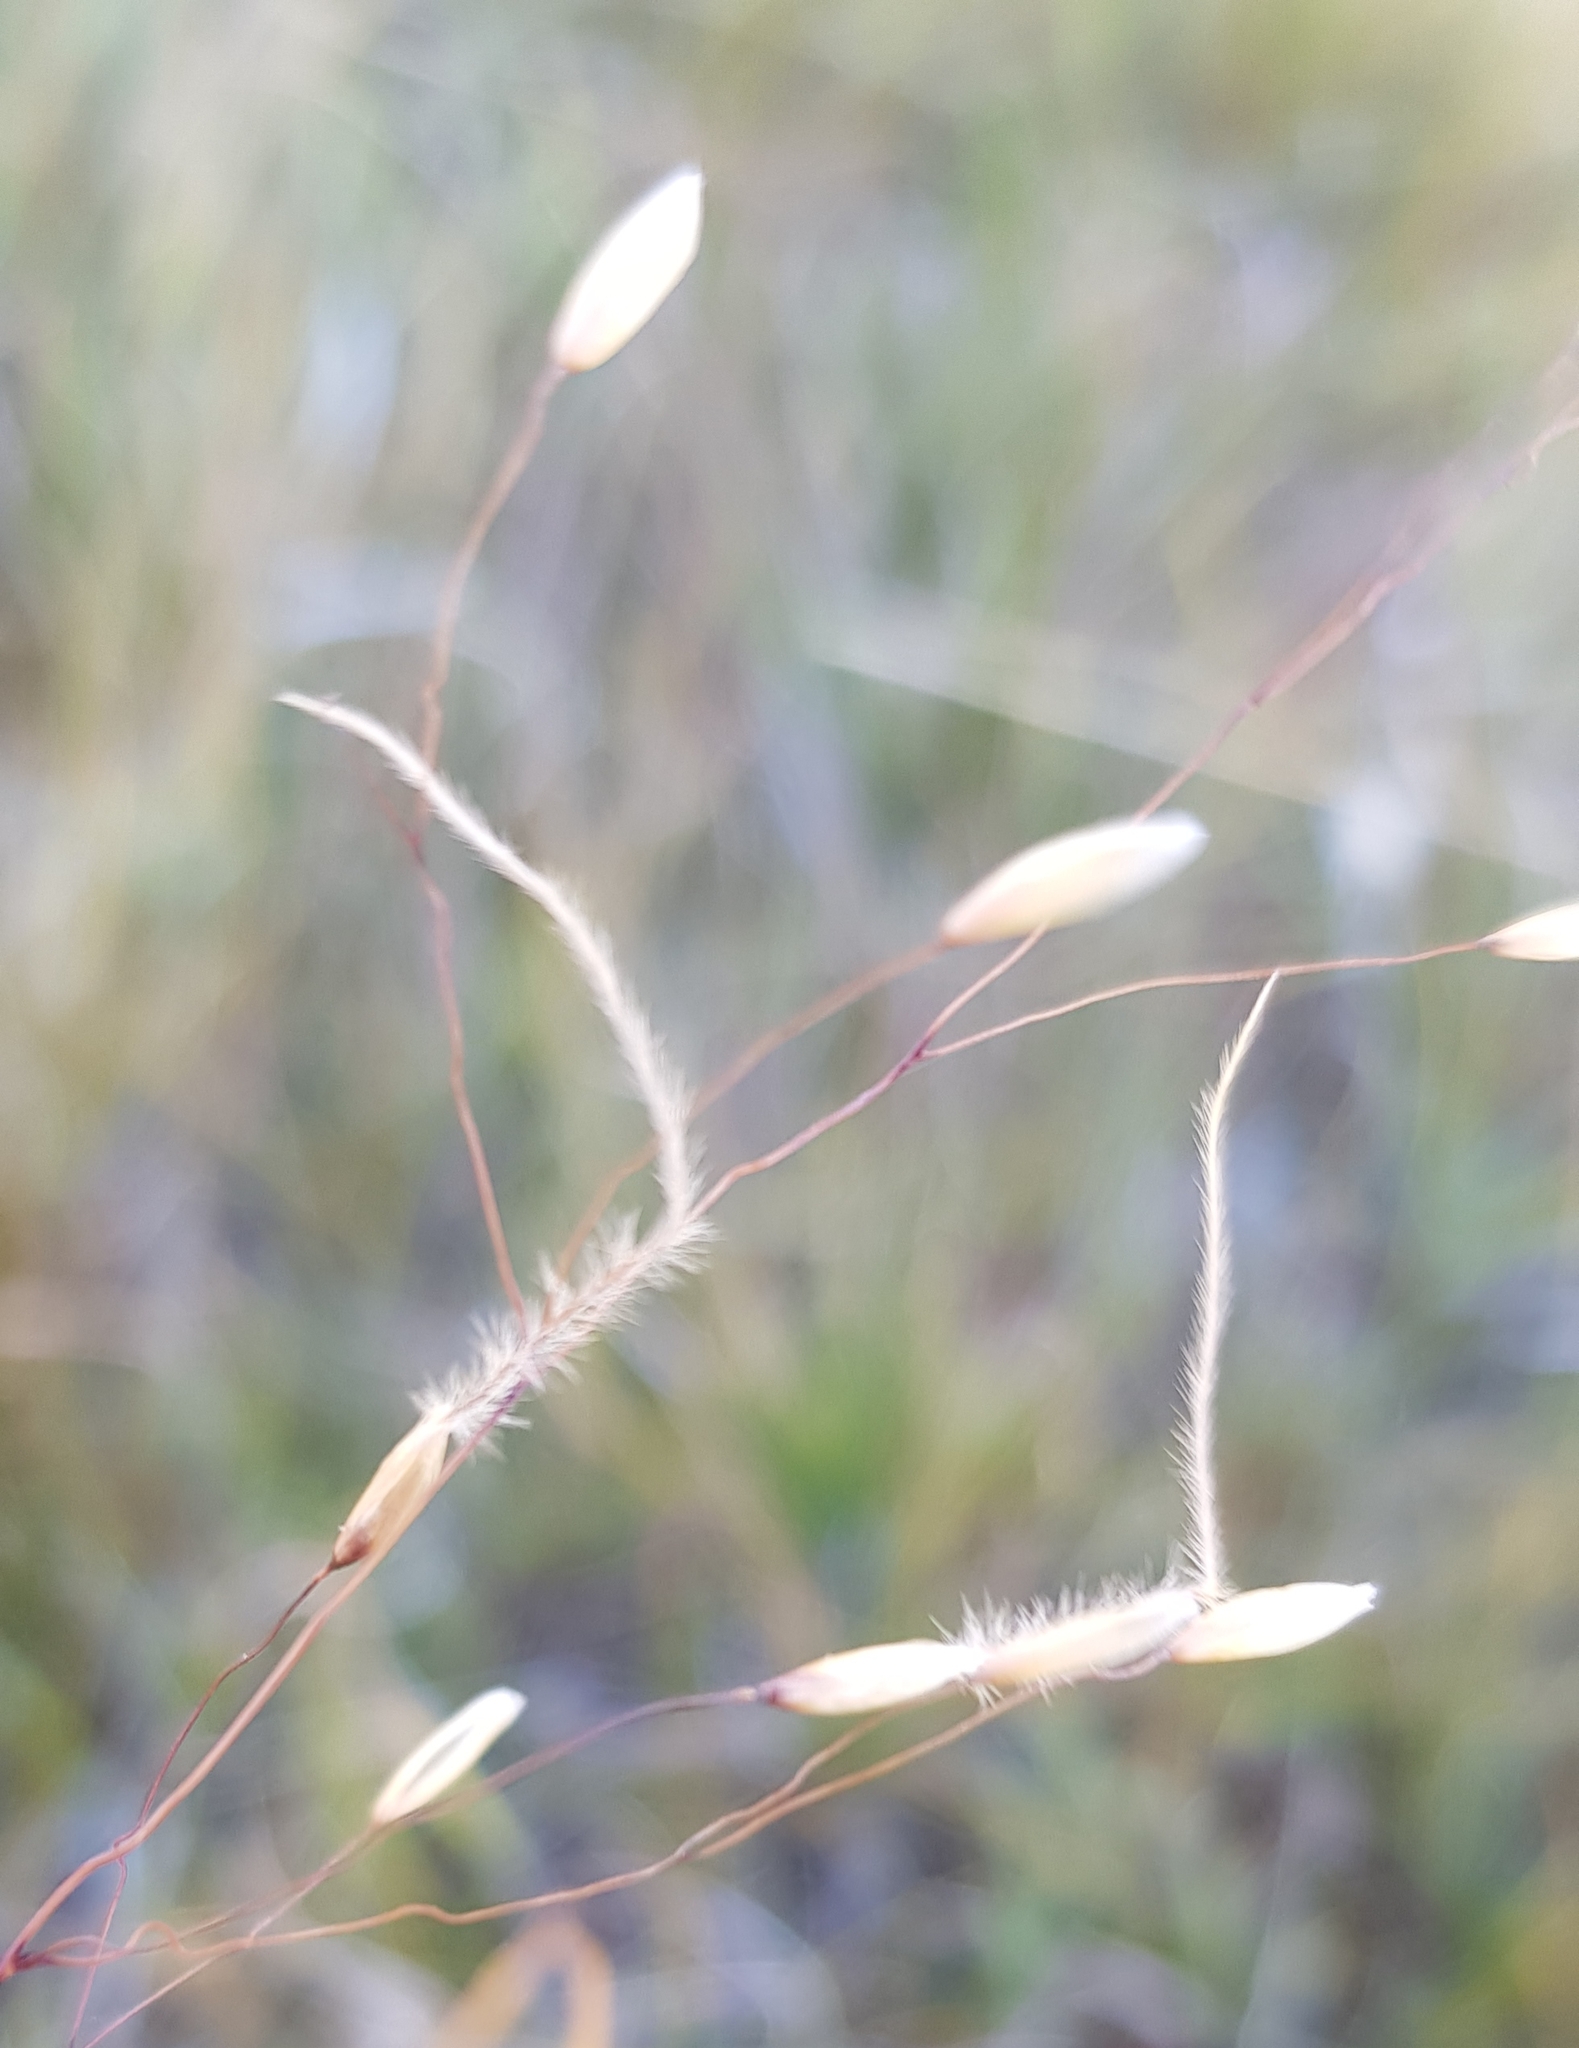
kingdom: Plantae
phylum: Tracheophyta
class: Liliopsida
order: Poales
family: Poaceae
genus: Ptilagrostis
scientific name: Ptilagrostis mongholica
